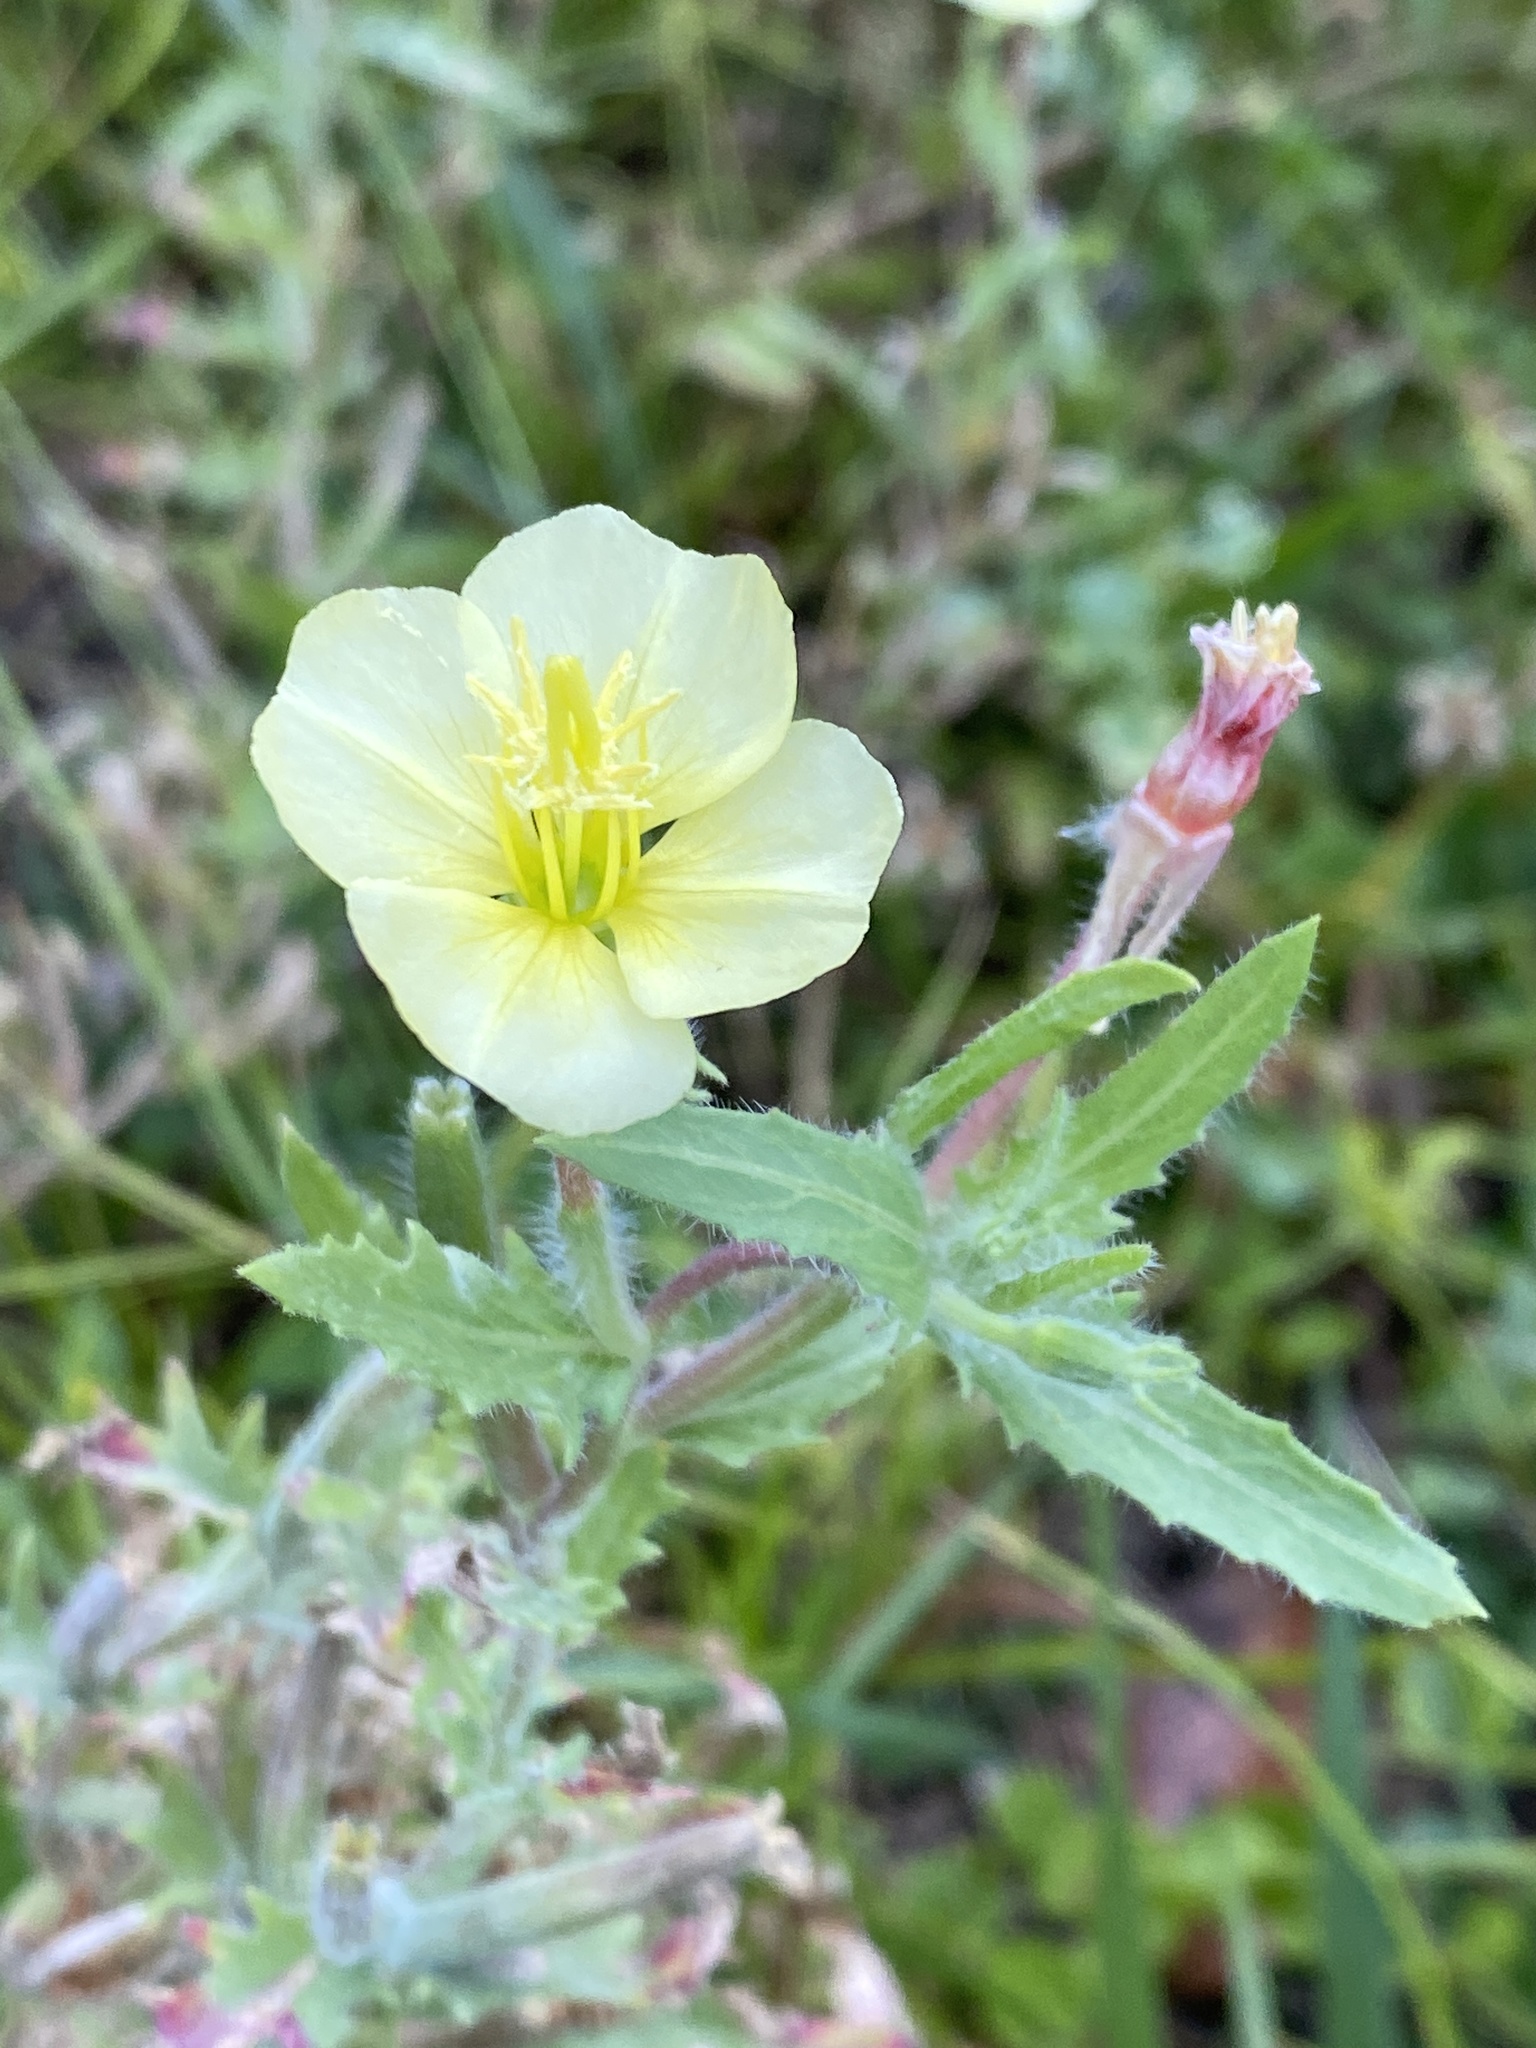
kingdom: Plantae
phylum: Tracheophyta
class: Magnoliopsida
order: Myrtales
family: Onagraceae
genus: Oenothera
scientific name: Oenothera laciniata
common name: Cut-leaved evening-primrose
